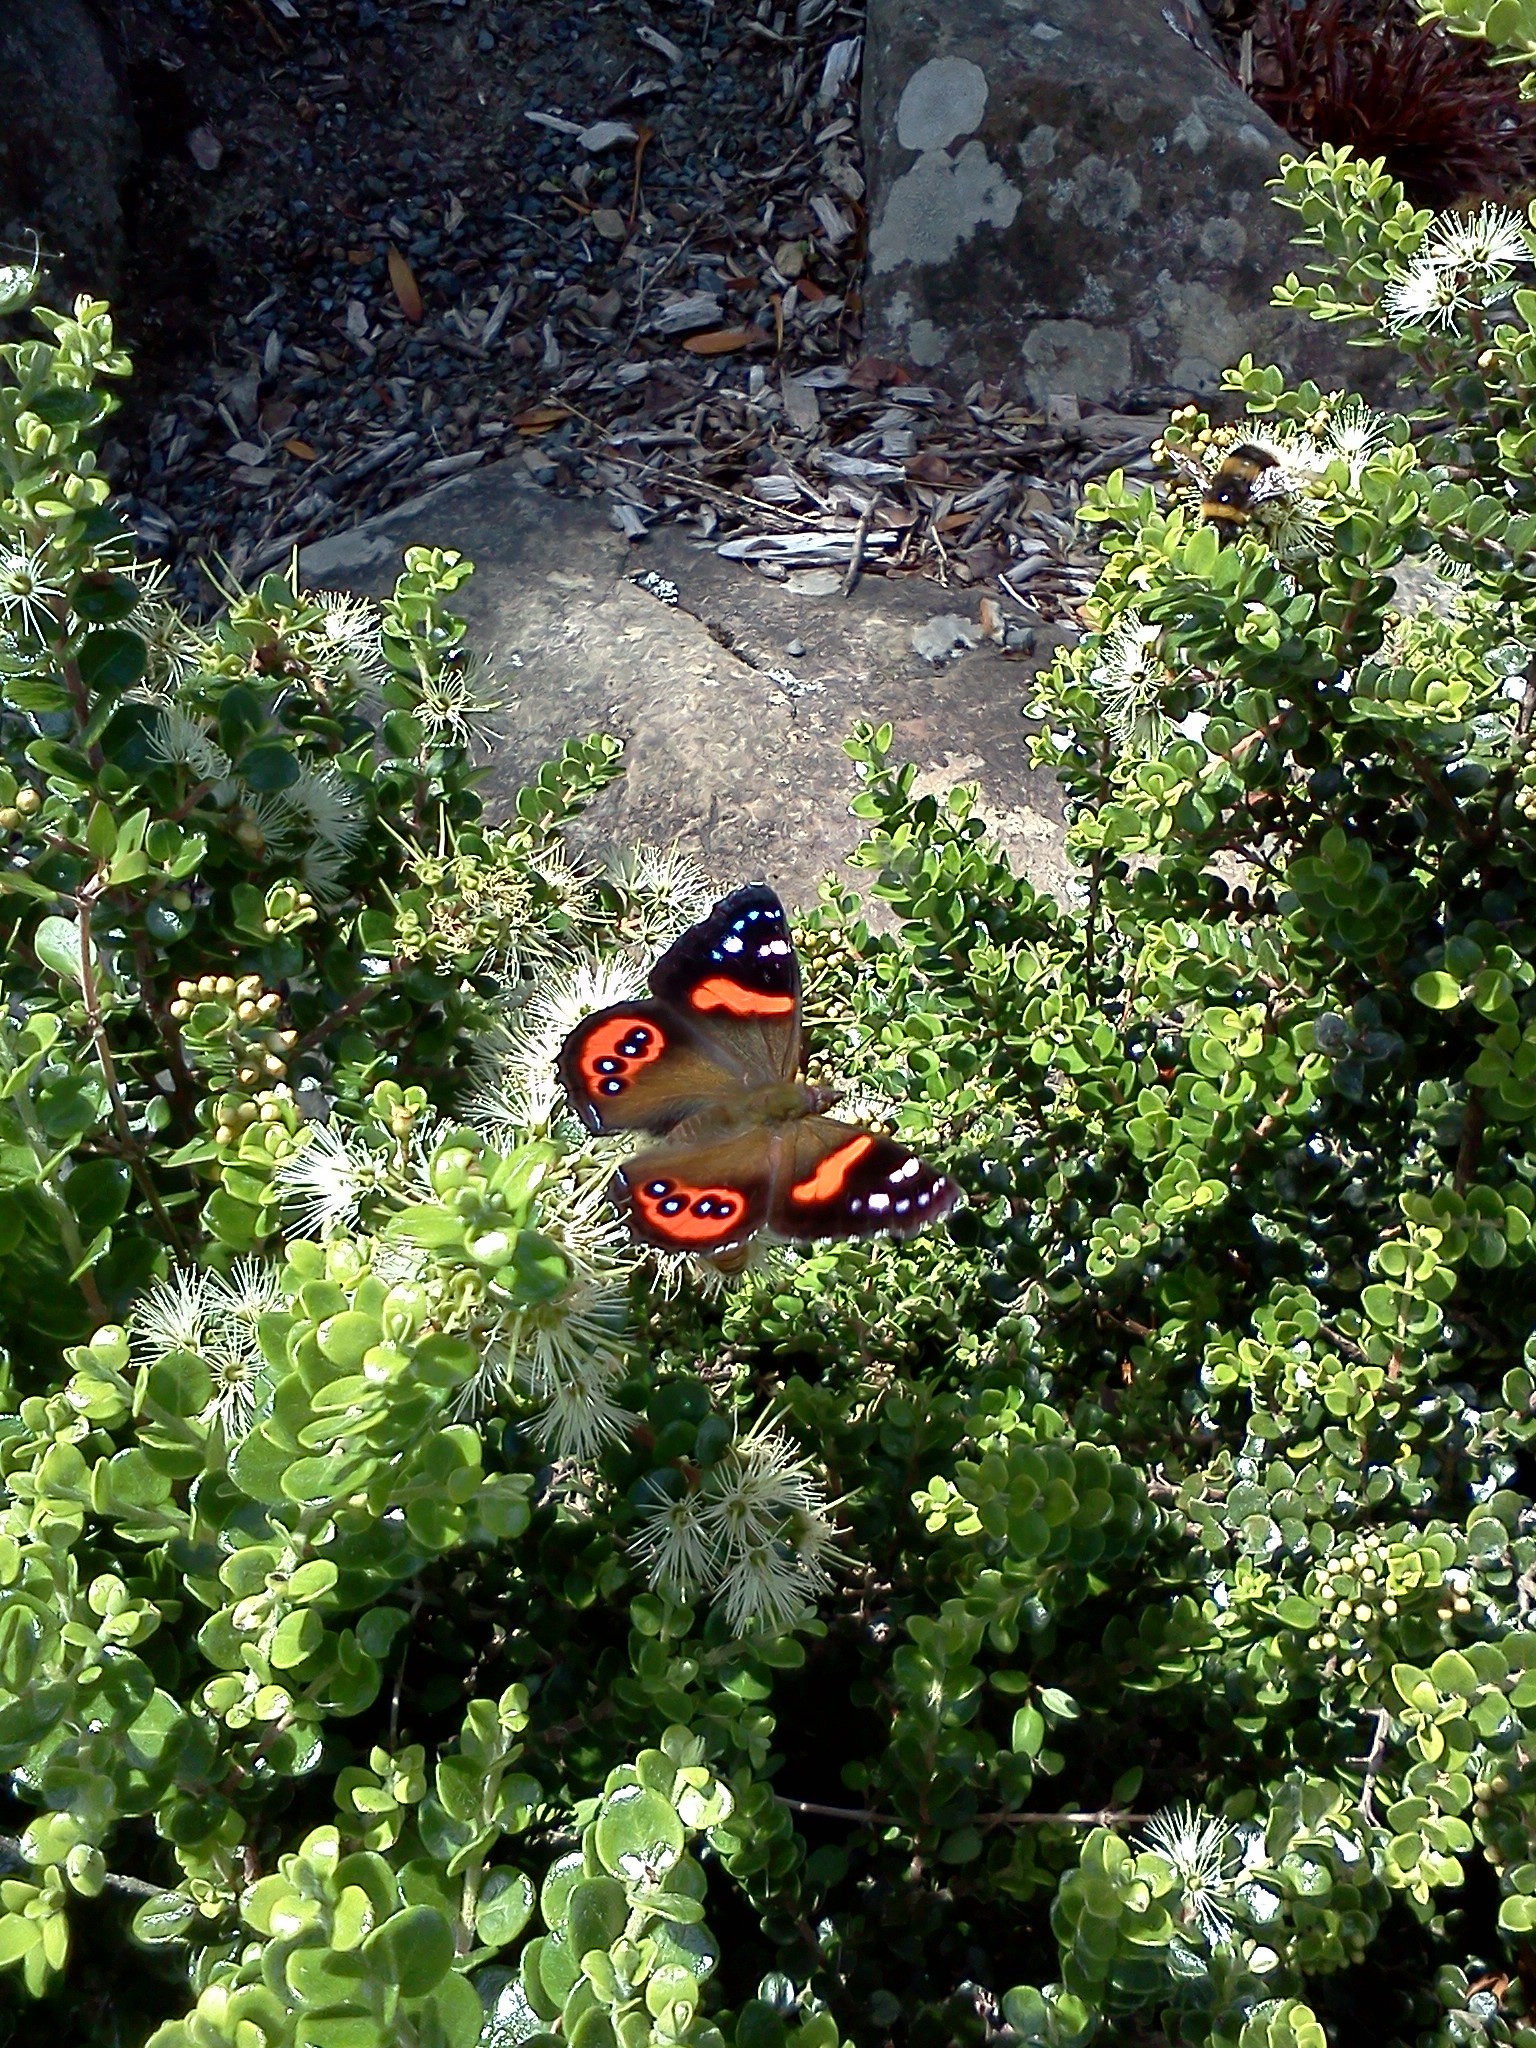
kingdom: Animalia
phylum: Arthropoda
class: Insecta
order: Lepidoptera
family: Nymphalidae
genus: Vanessa
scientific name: Vanessa gonerilla
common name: New zealand red admiral
